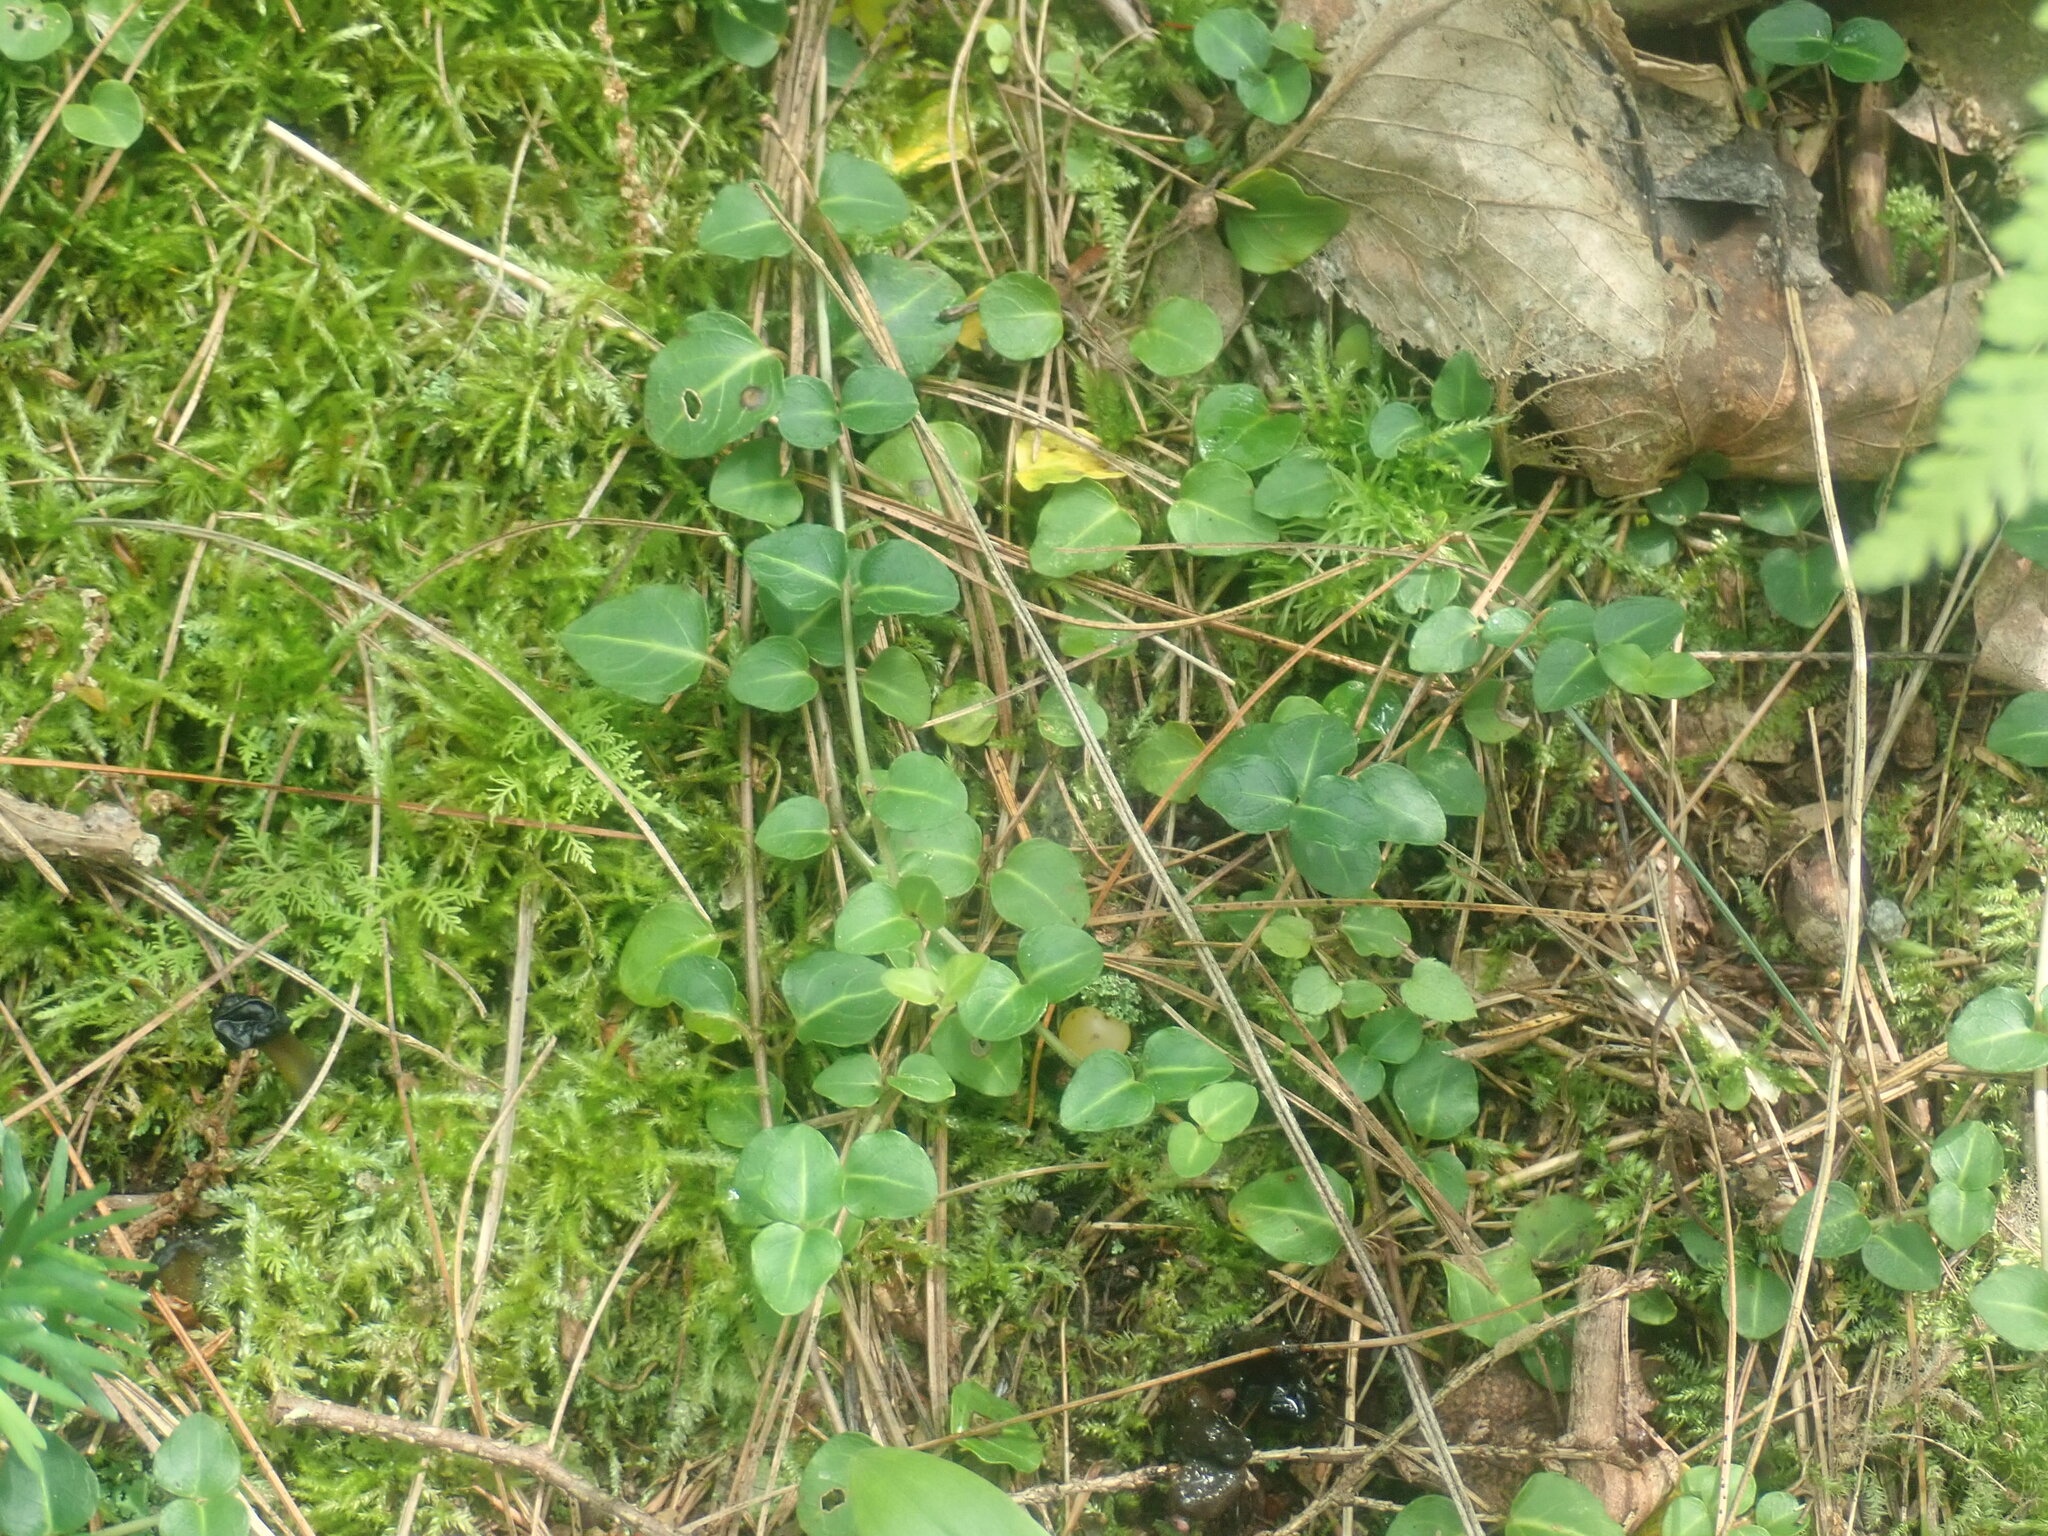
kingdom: Plantae
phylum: Tracheophyta
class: Magnoliopsida
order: Gentianales
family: Rubiaceae
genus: Mitchella
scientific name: Mitchella repens
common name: Partridge-berry
